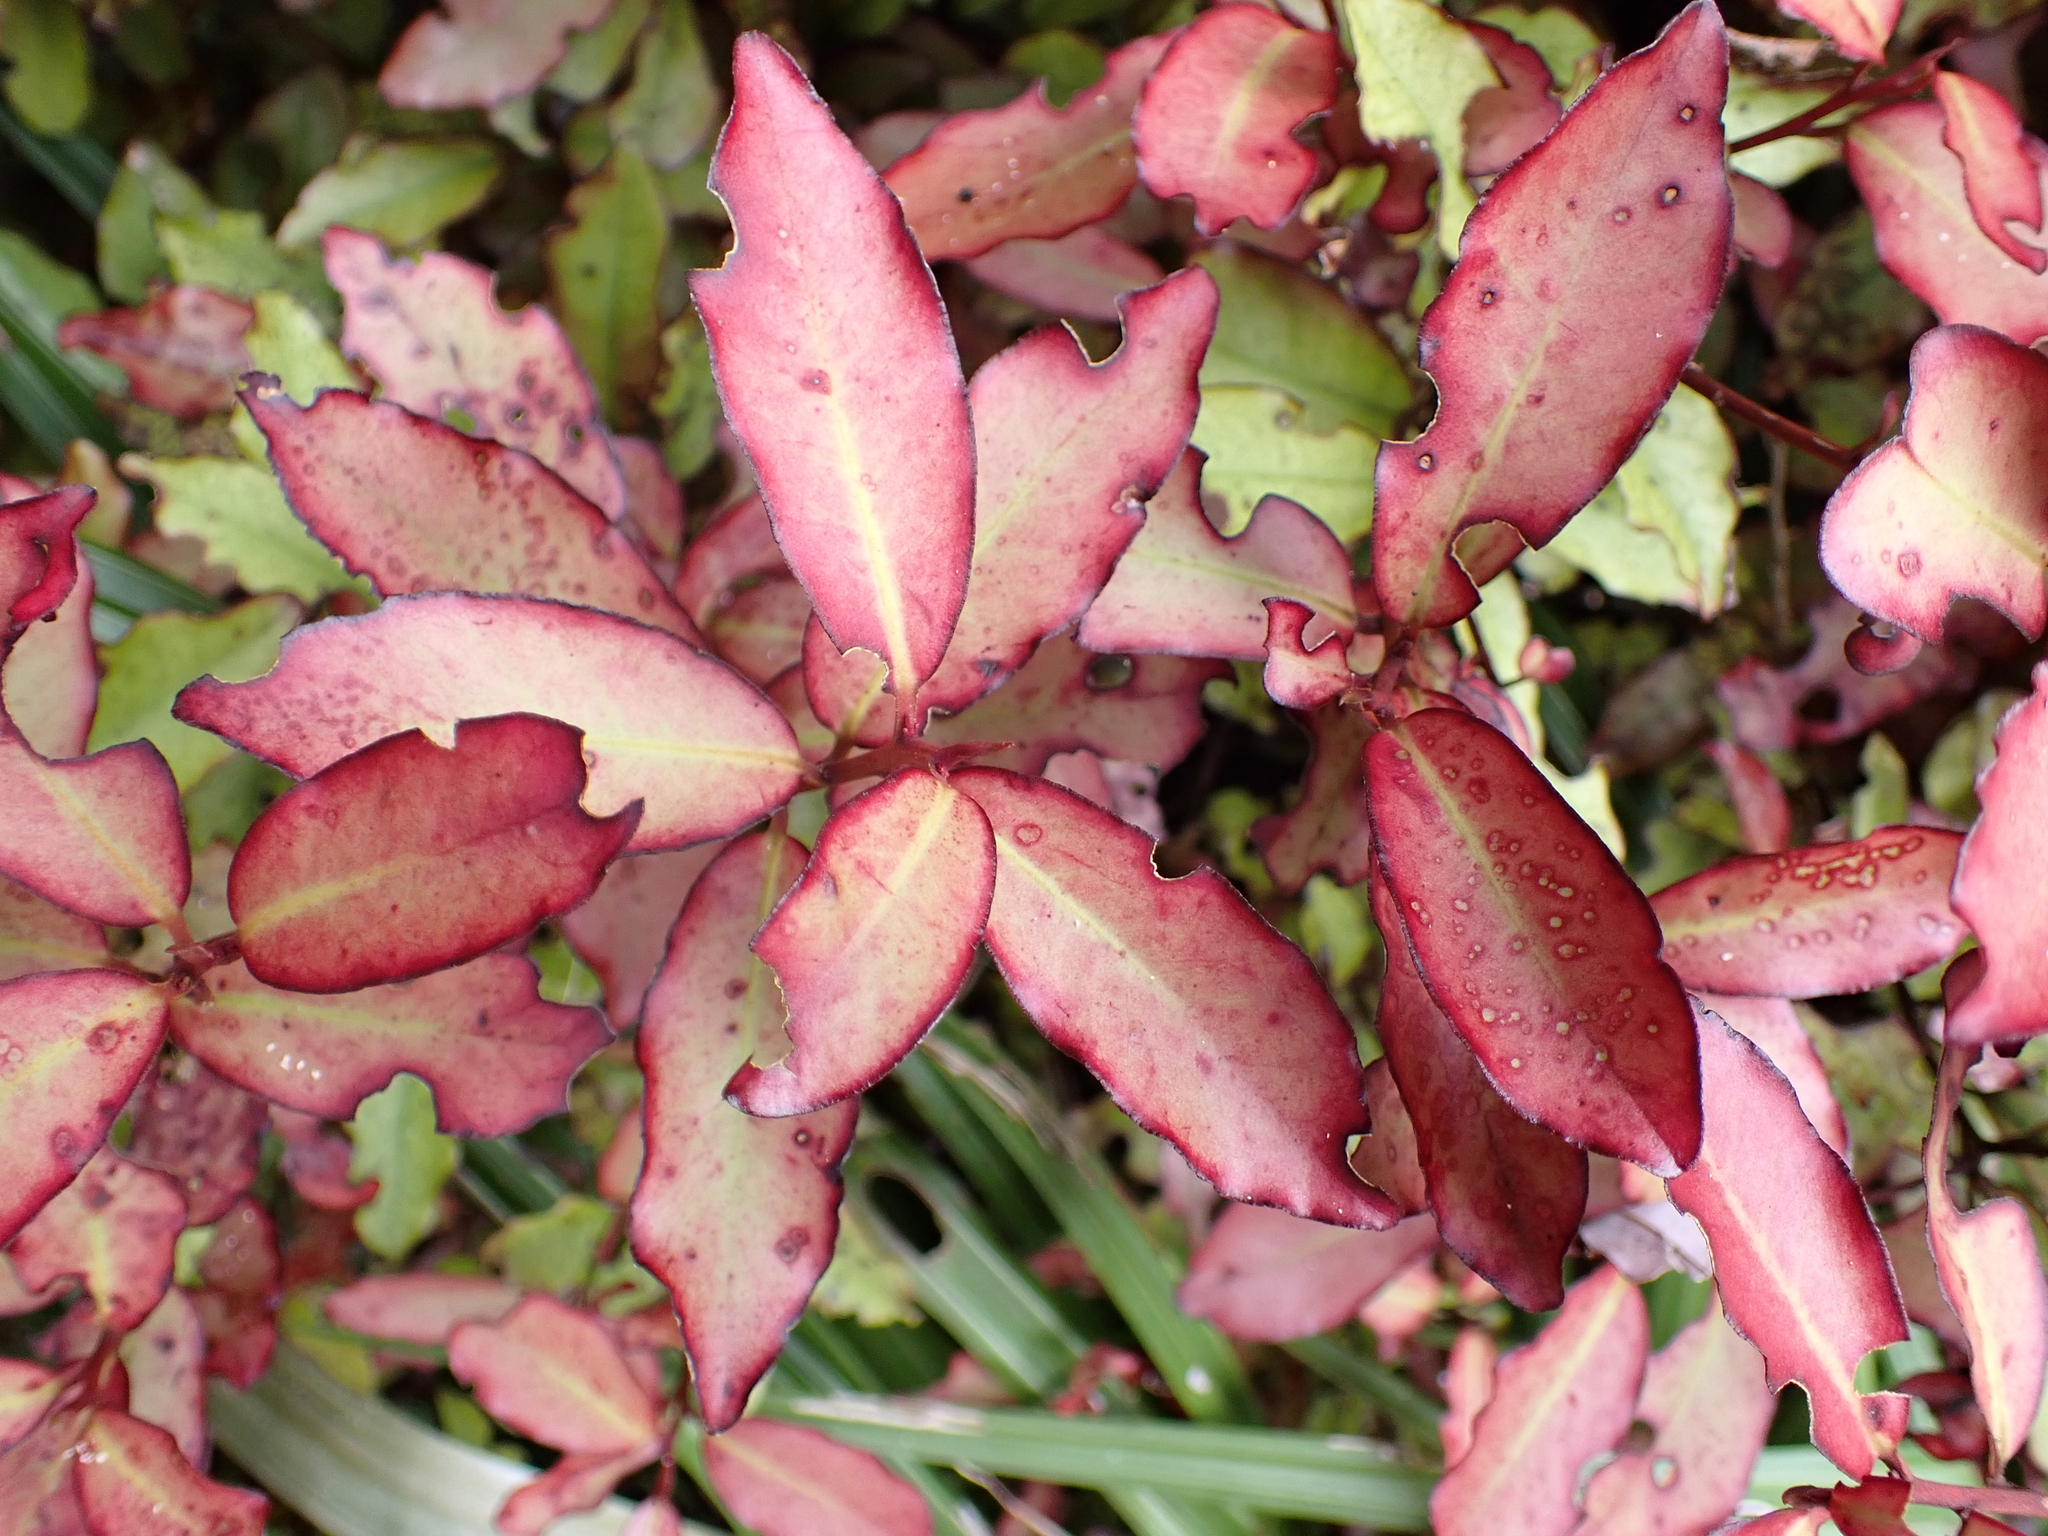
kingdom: Plantae
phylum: Tracheophyta
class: Magnoliopsida
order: Canellales
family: Winteraceae
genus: Pseudowintera
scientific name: Pseudowintera colorata
